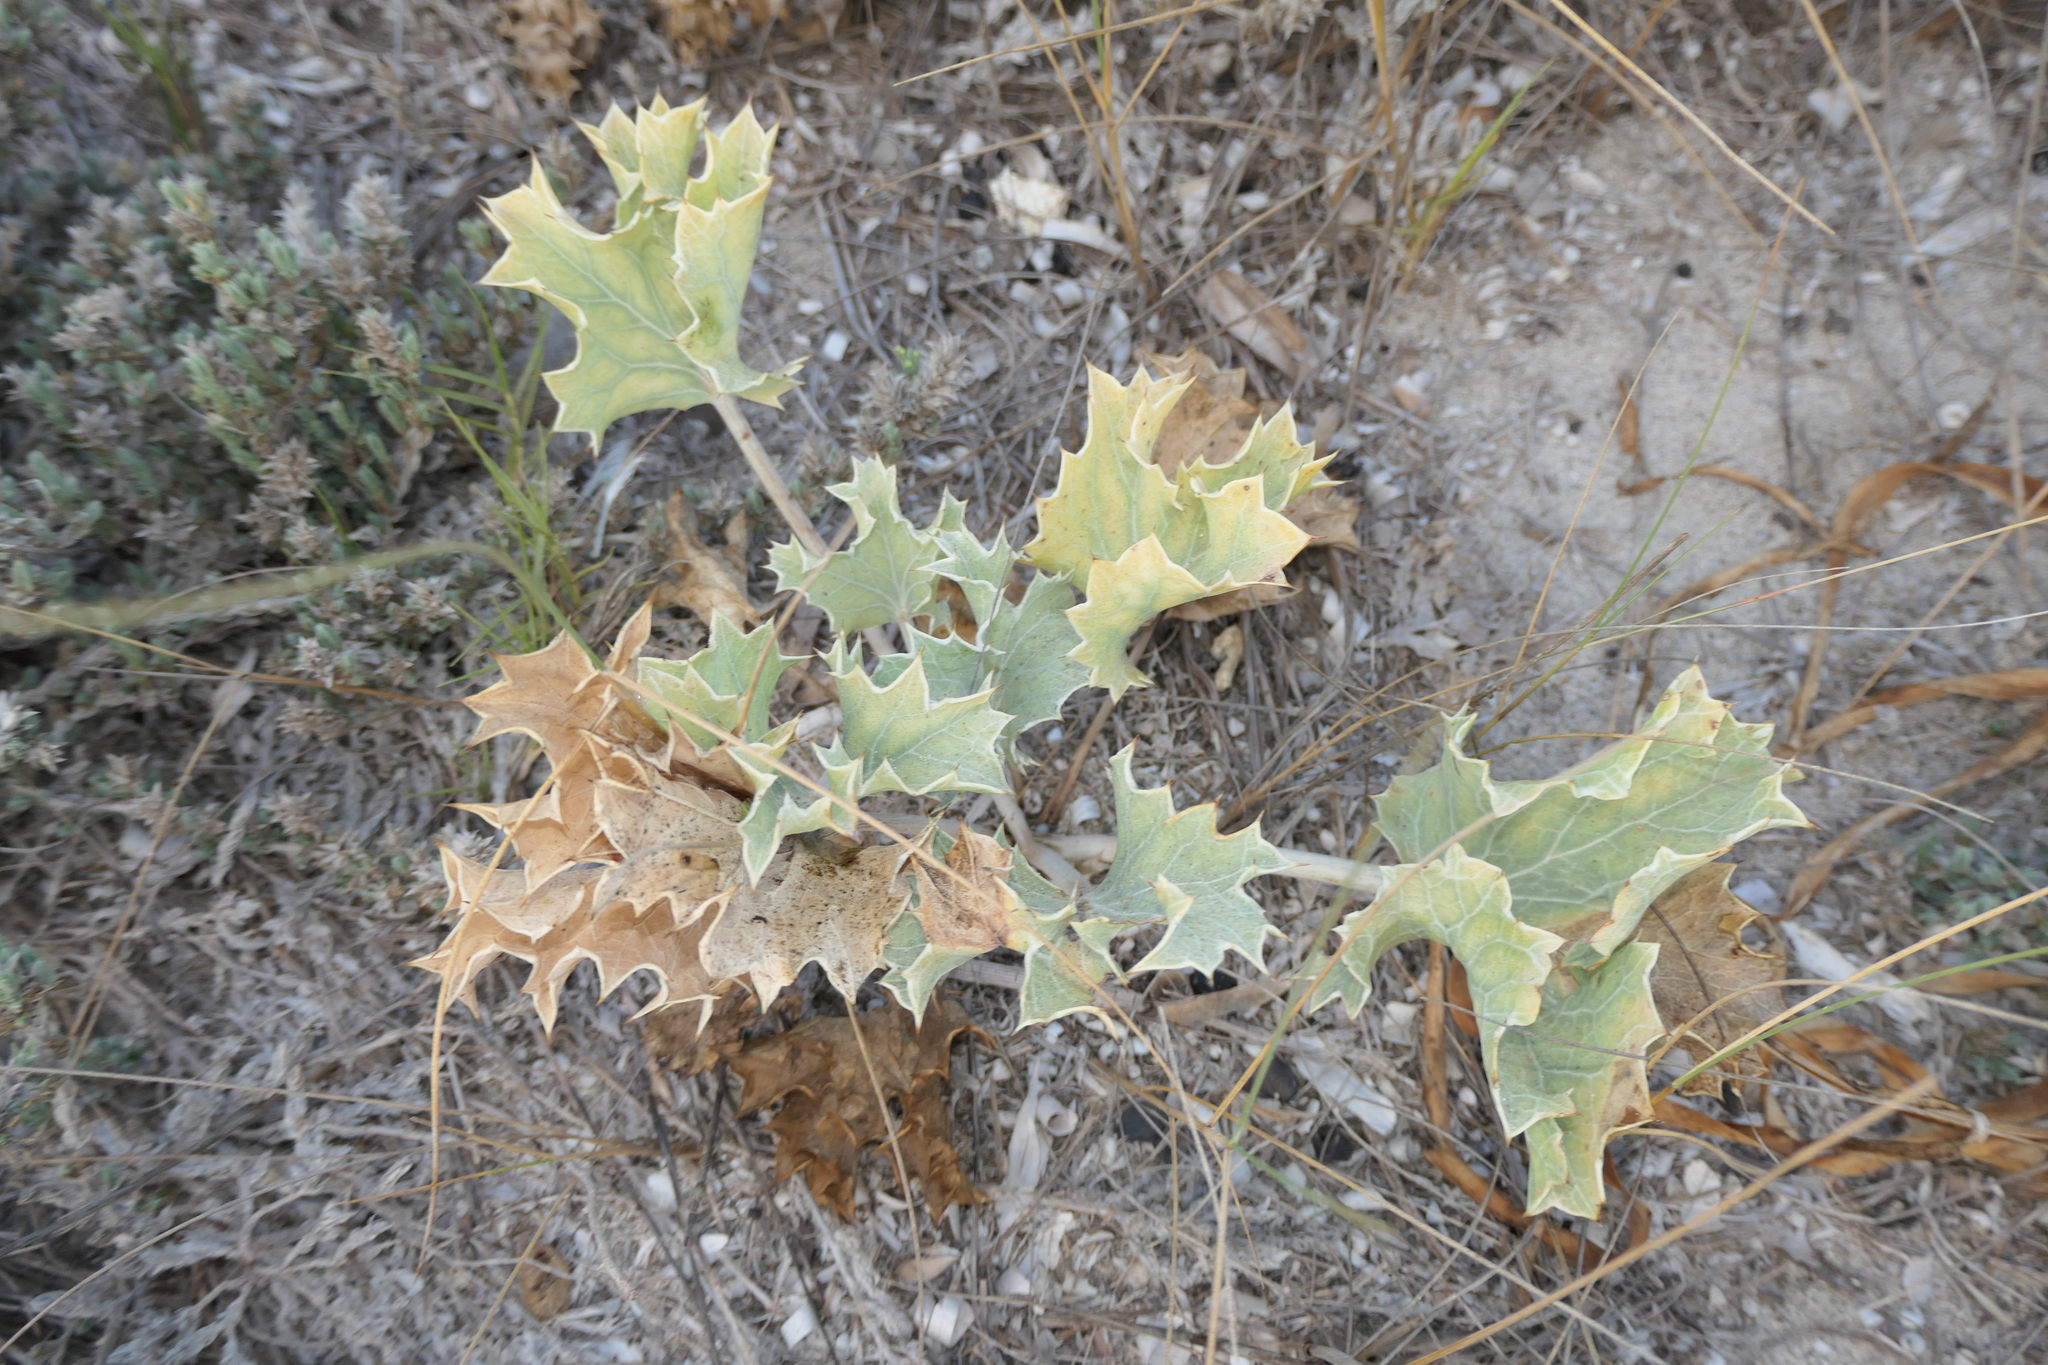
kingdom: Plantae
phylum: Tracheophyta
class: Magnoliopsida
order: Apiales
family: Apiaceae
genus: Eryngium
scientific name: Eryngium maritimum
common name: Sea-holly
